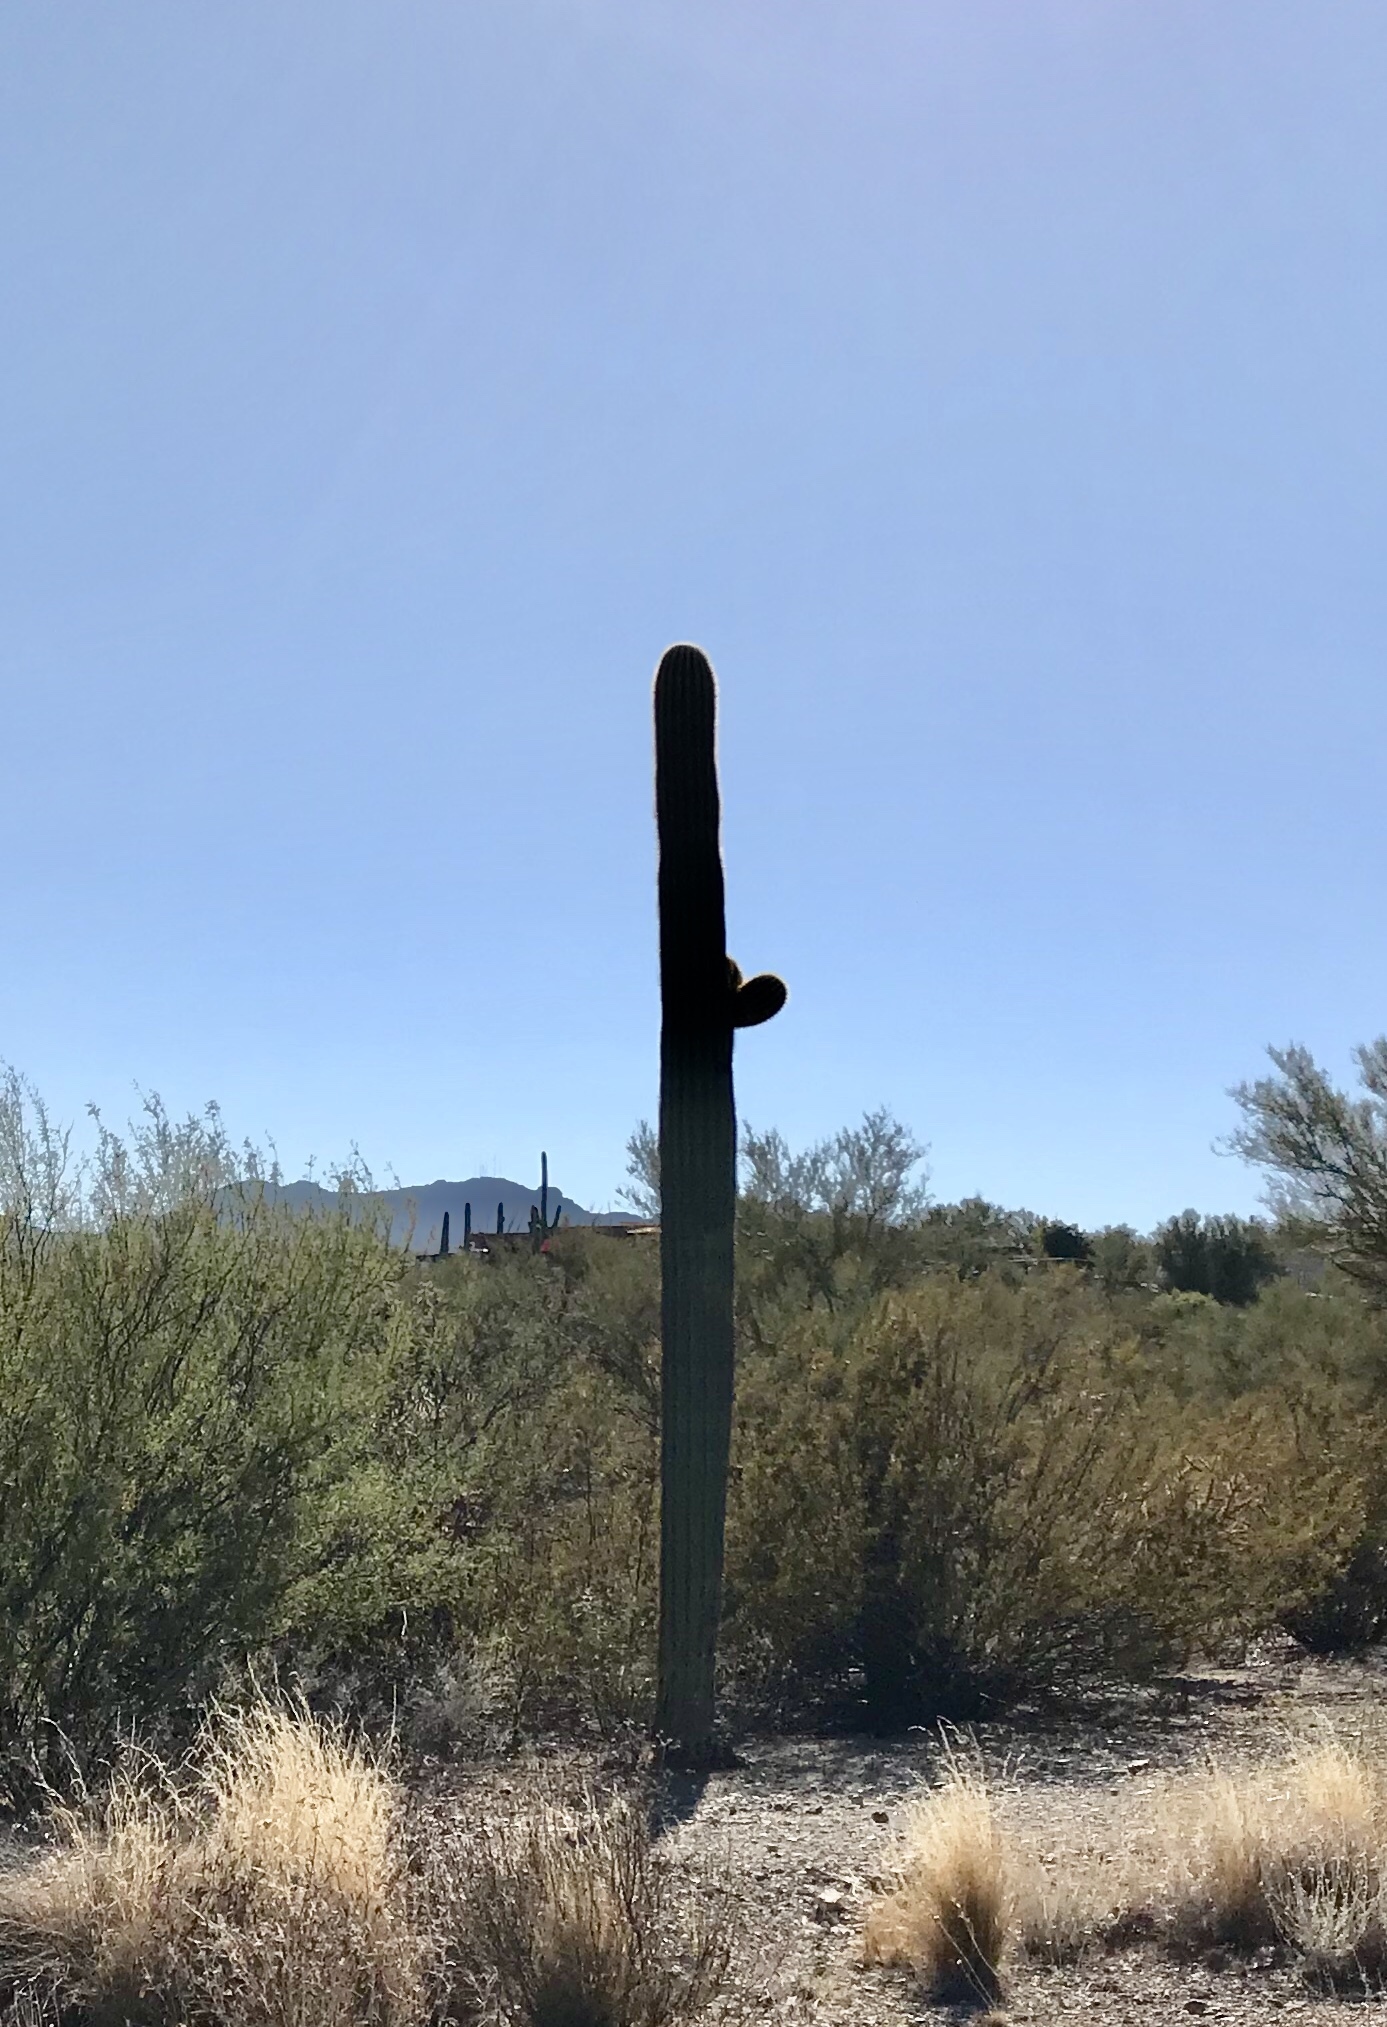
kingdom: Plantae
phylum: Tracheophyta
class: Magnoliopsida
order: Caryophyllales
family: Cactaceae
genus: Carnegiea
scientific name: Carnegiea gigantea
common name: Saguaro
